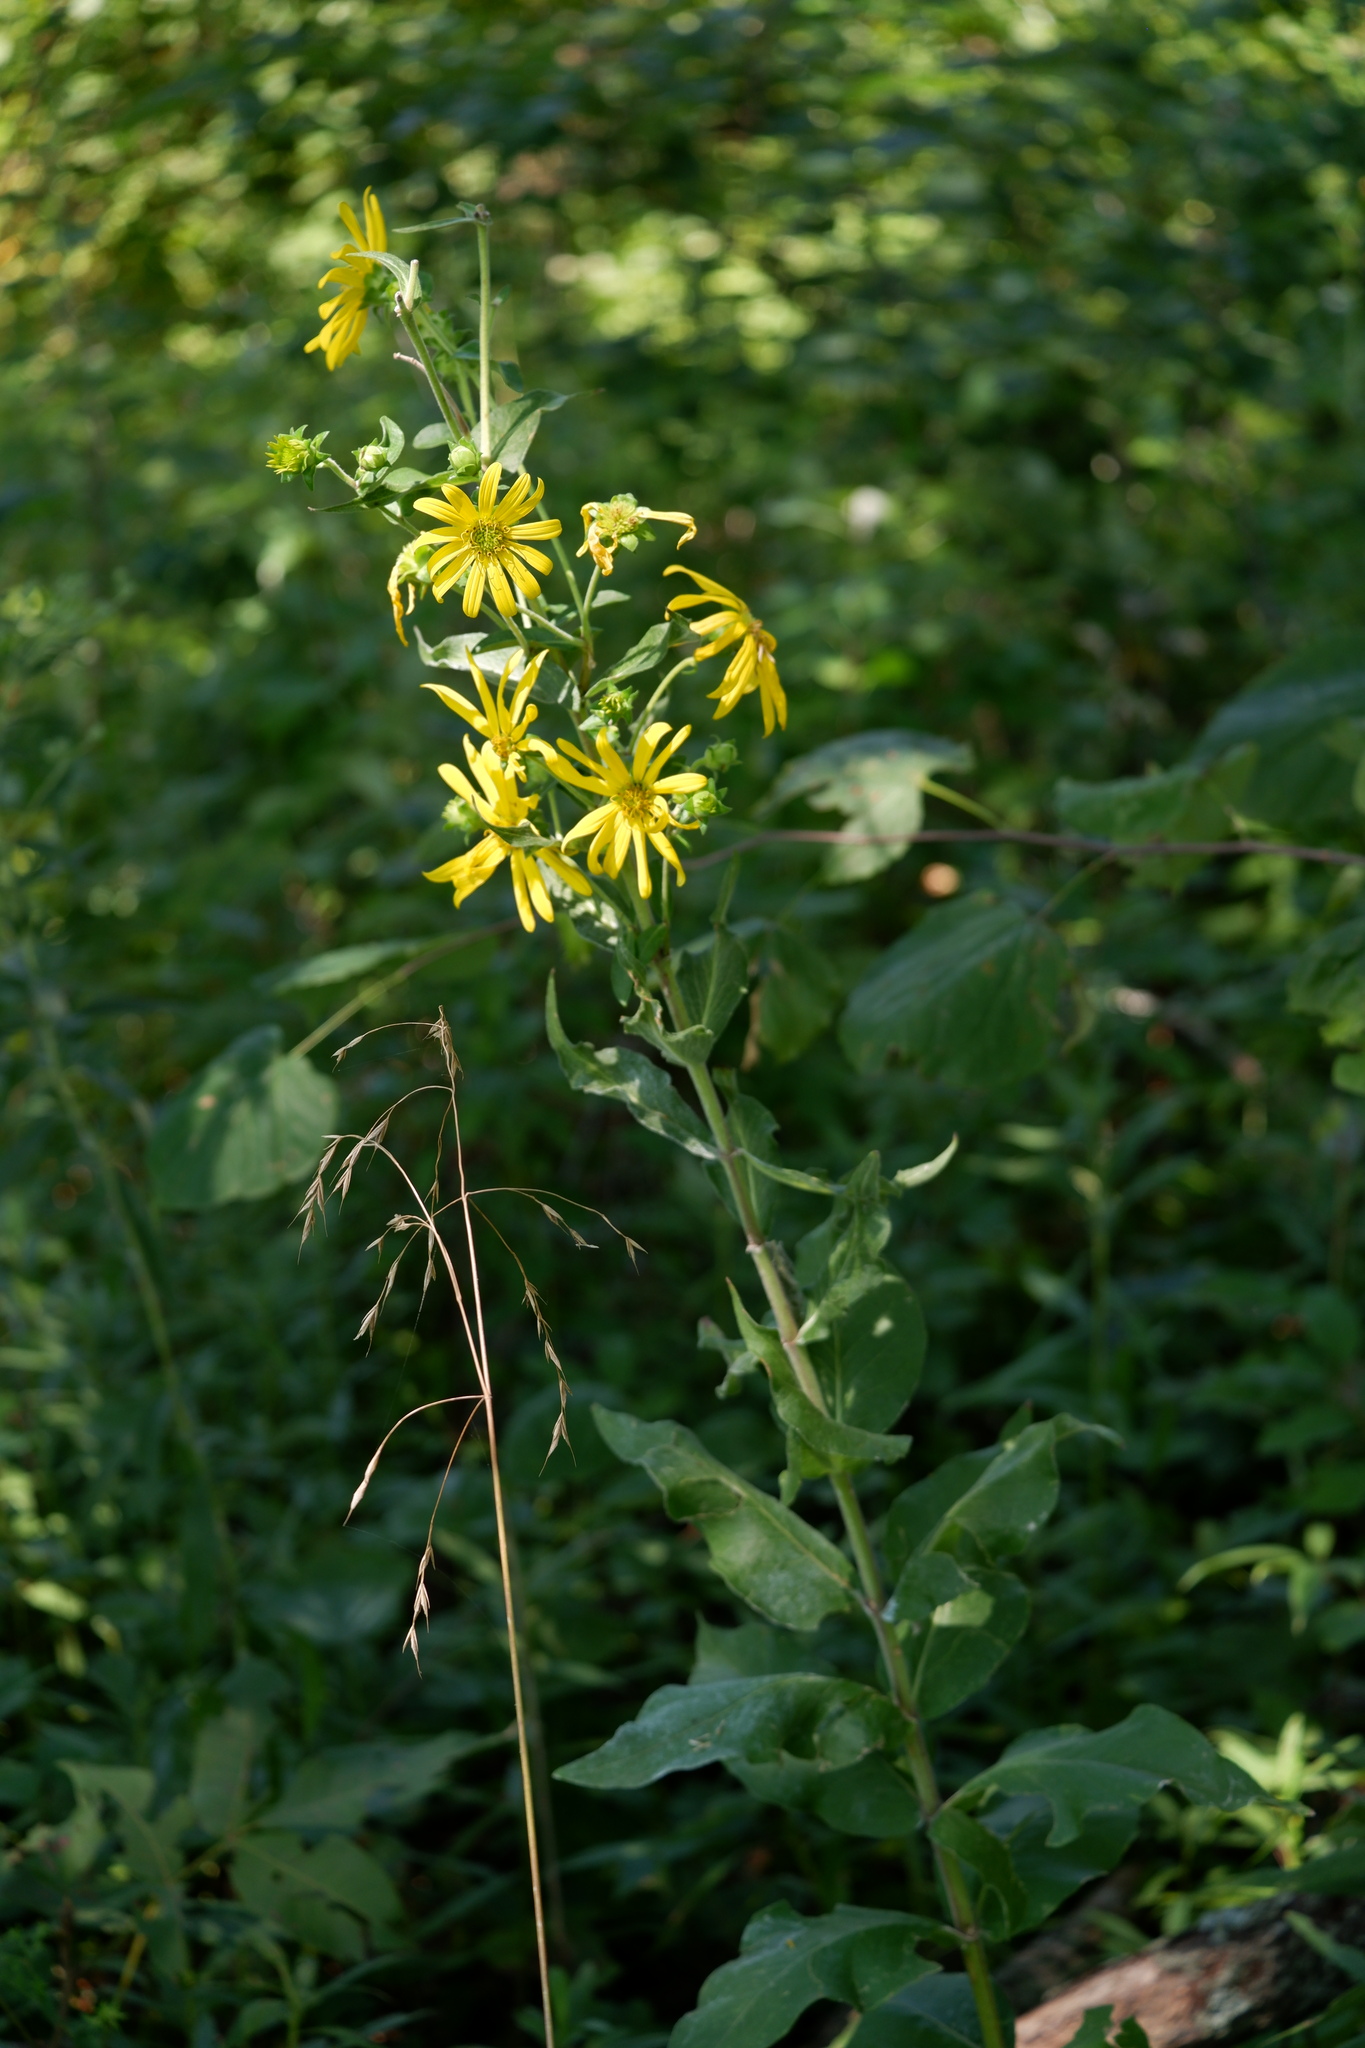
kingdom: Plantae
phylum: Tracheophyta
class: Magnoliopsida
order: Asterales
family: Asteraceae
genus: Silphium
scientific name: Silphium integrifolium
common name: Whole-leaf rosinweed
